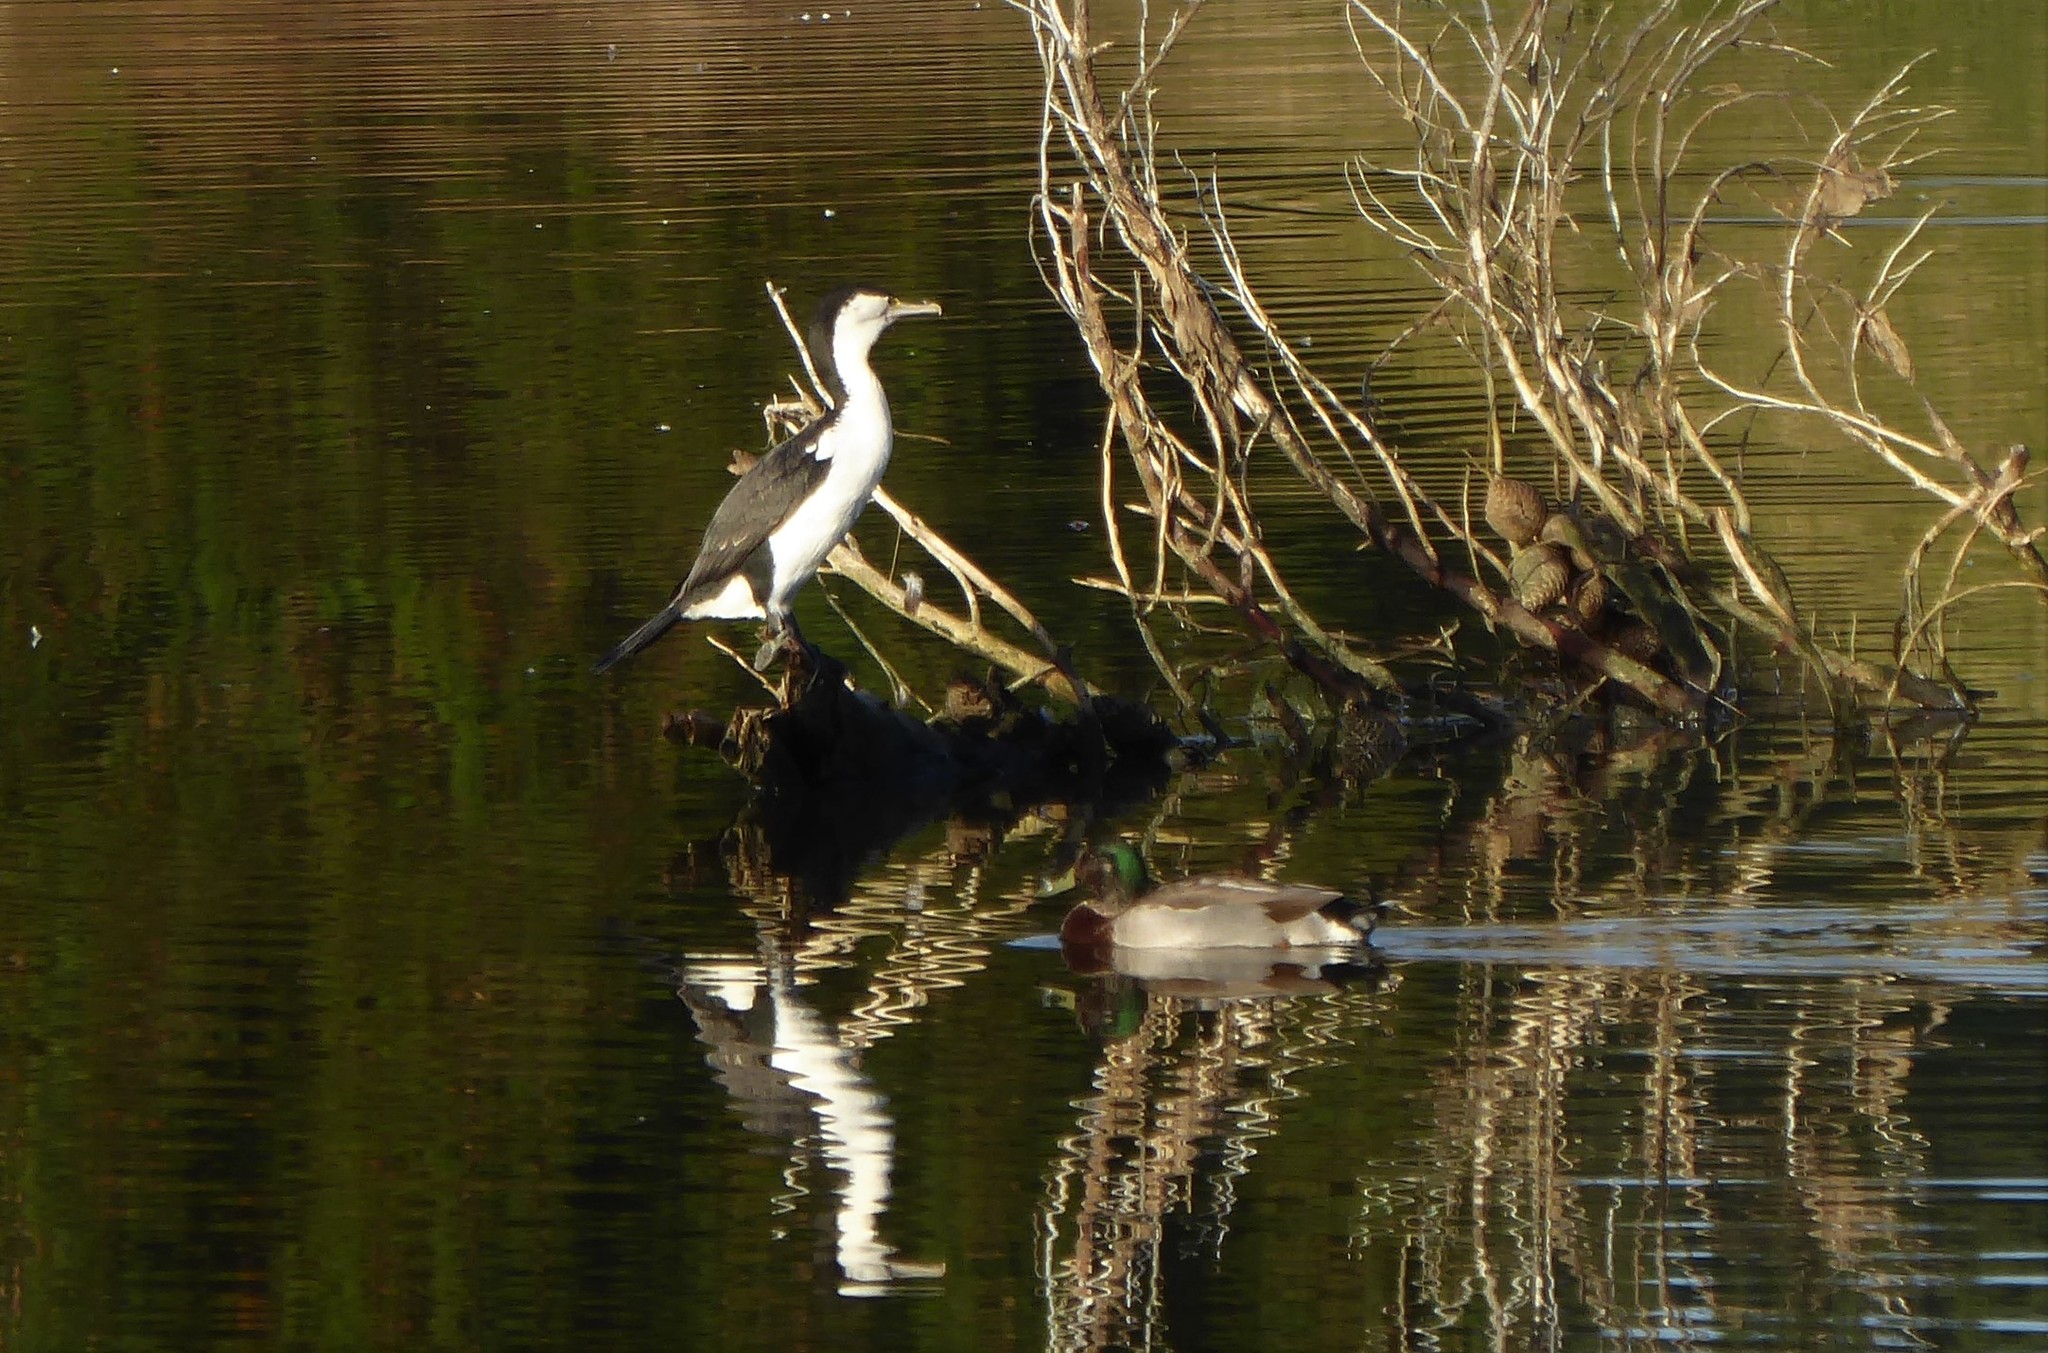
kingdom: Animalia
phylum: Chordata
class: Aves
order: Suliformes
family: Phalacrocoracidae
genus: Phalacrocorax
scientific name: Phalacrocorax varius
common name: Pied cormorant
